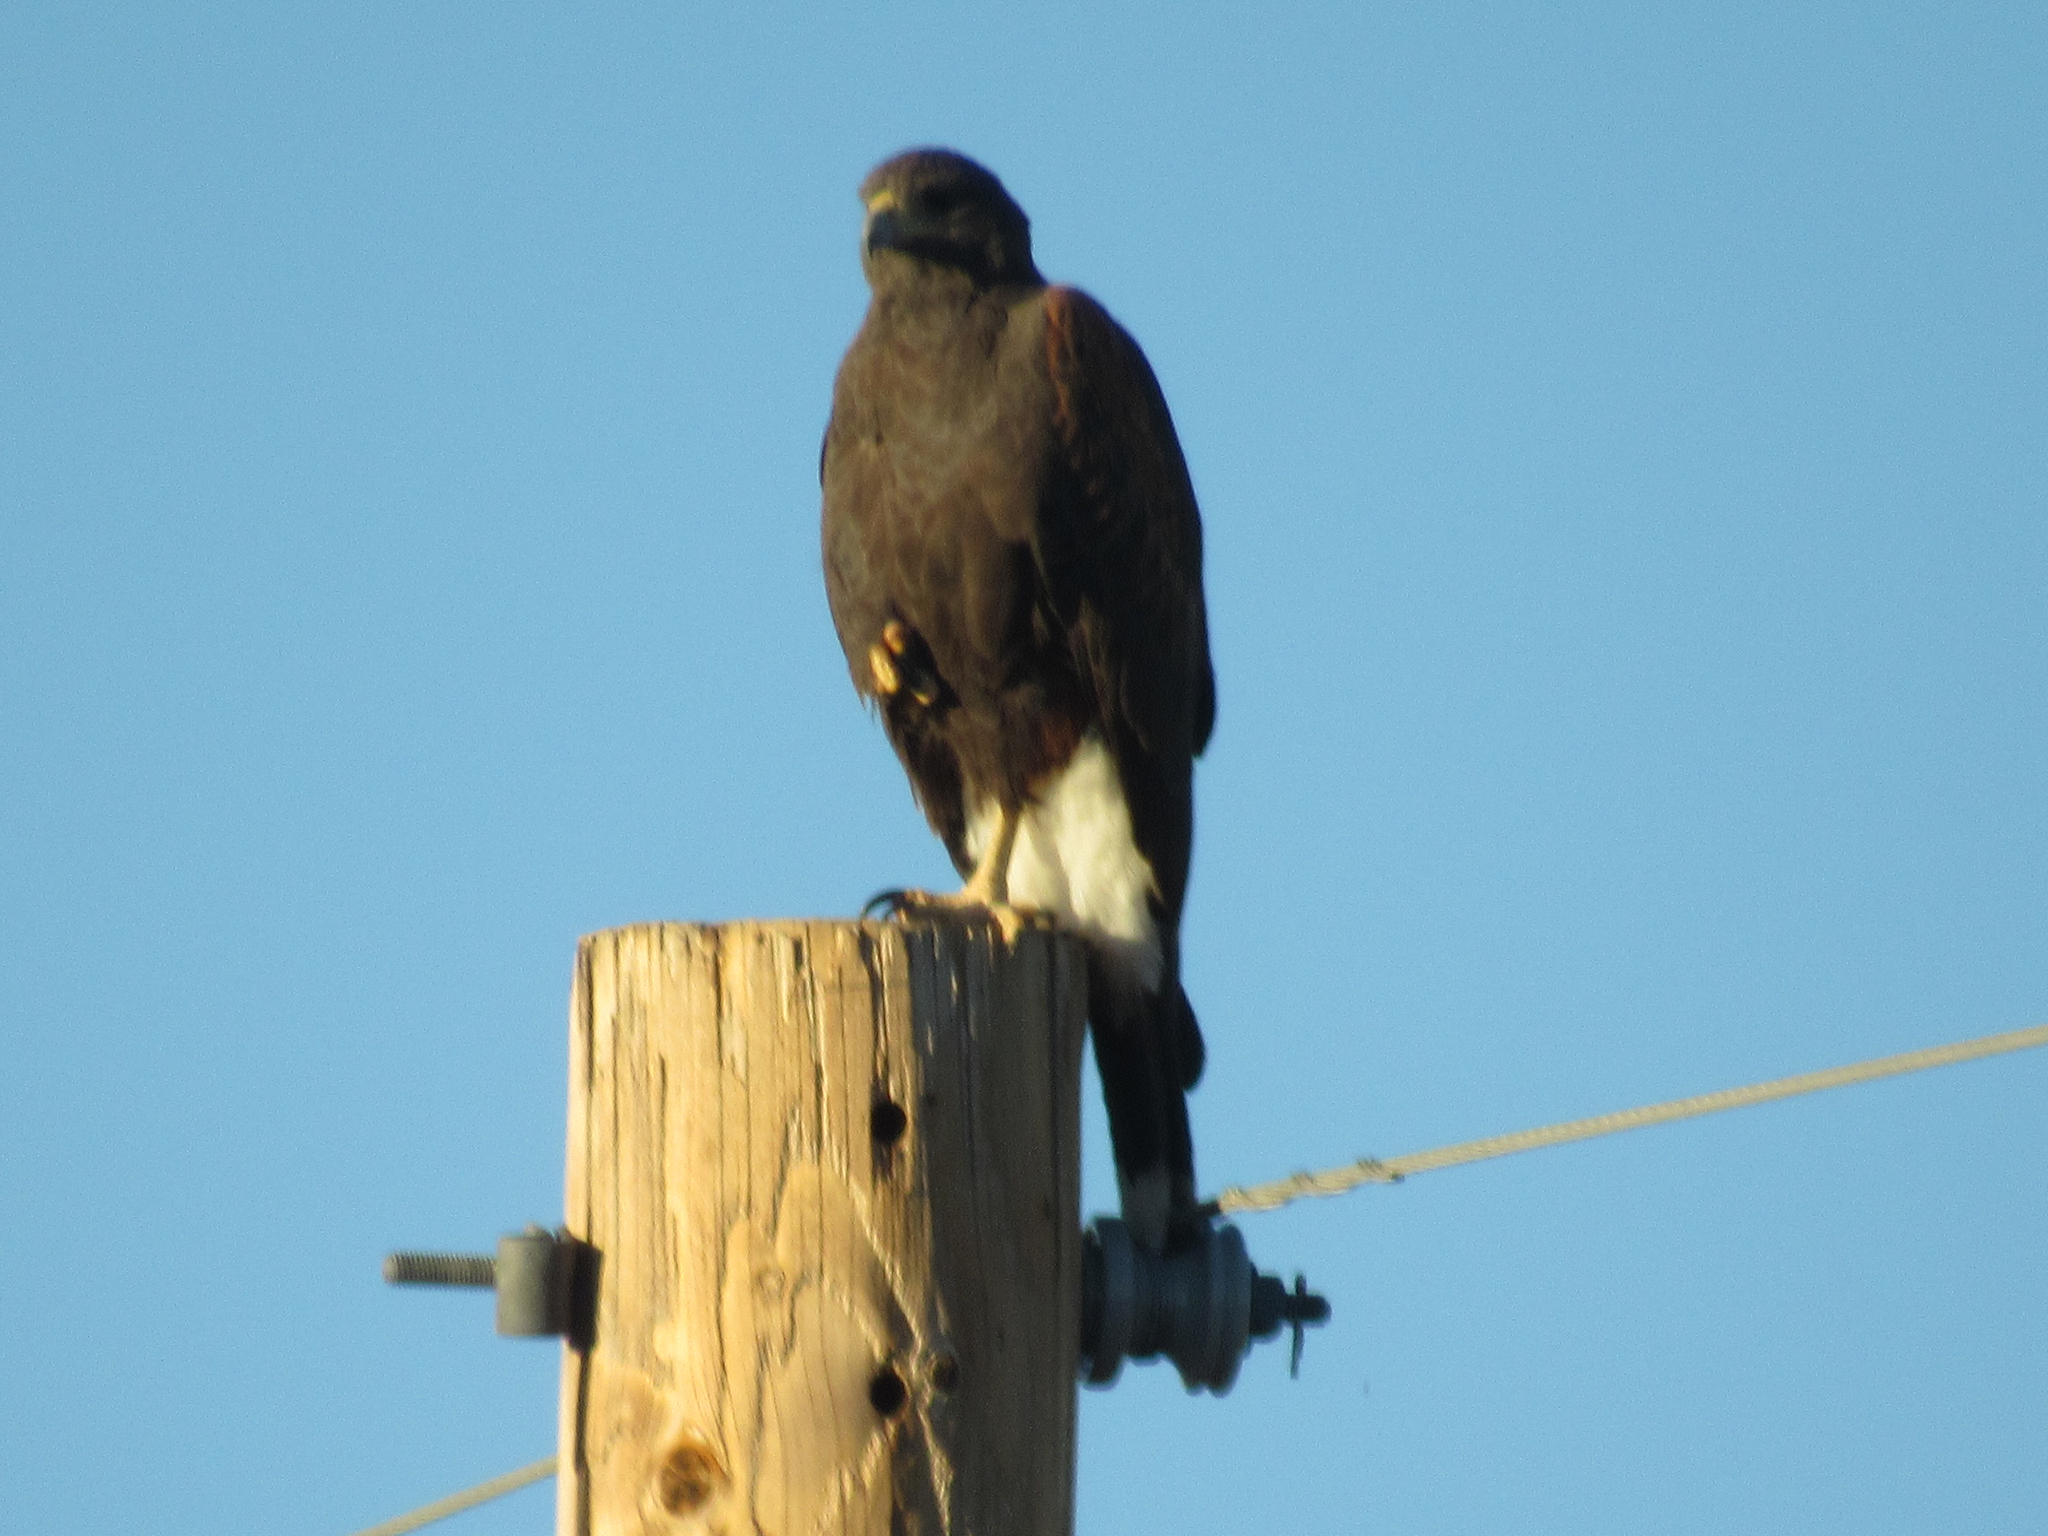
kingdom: Animalia
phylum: Chordata
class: Aves
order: Accipitriformes
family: Accipitridae
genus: Parabuteo
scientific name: Parabuteo unicinctus
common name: Harris's hawk
